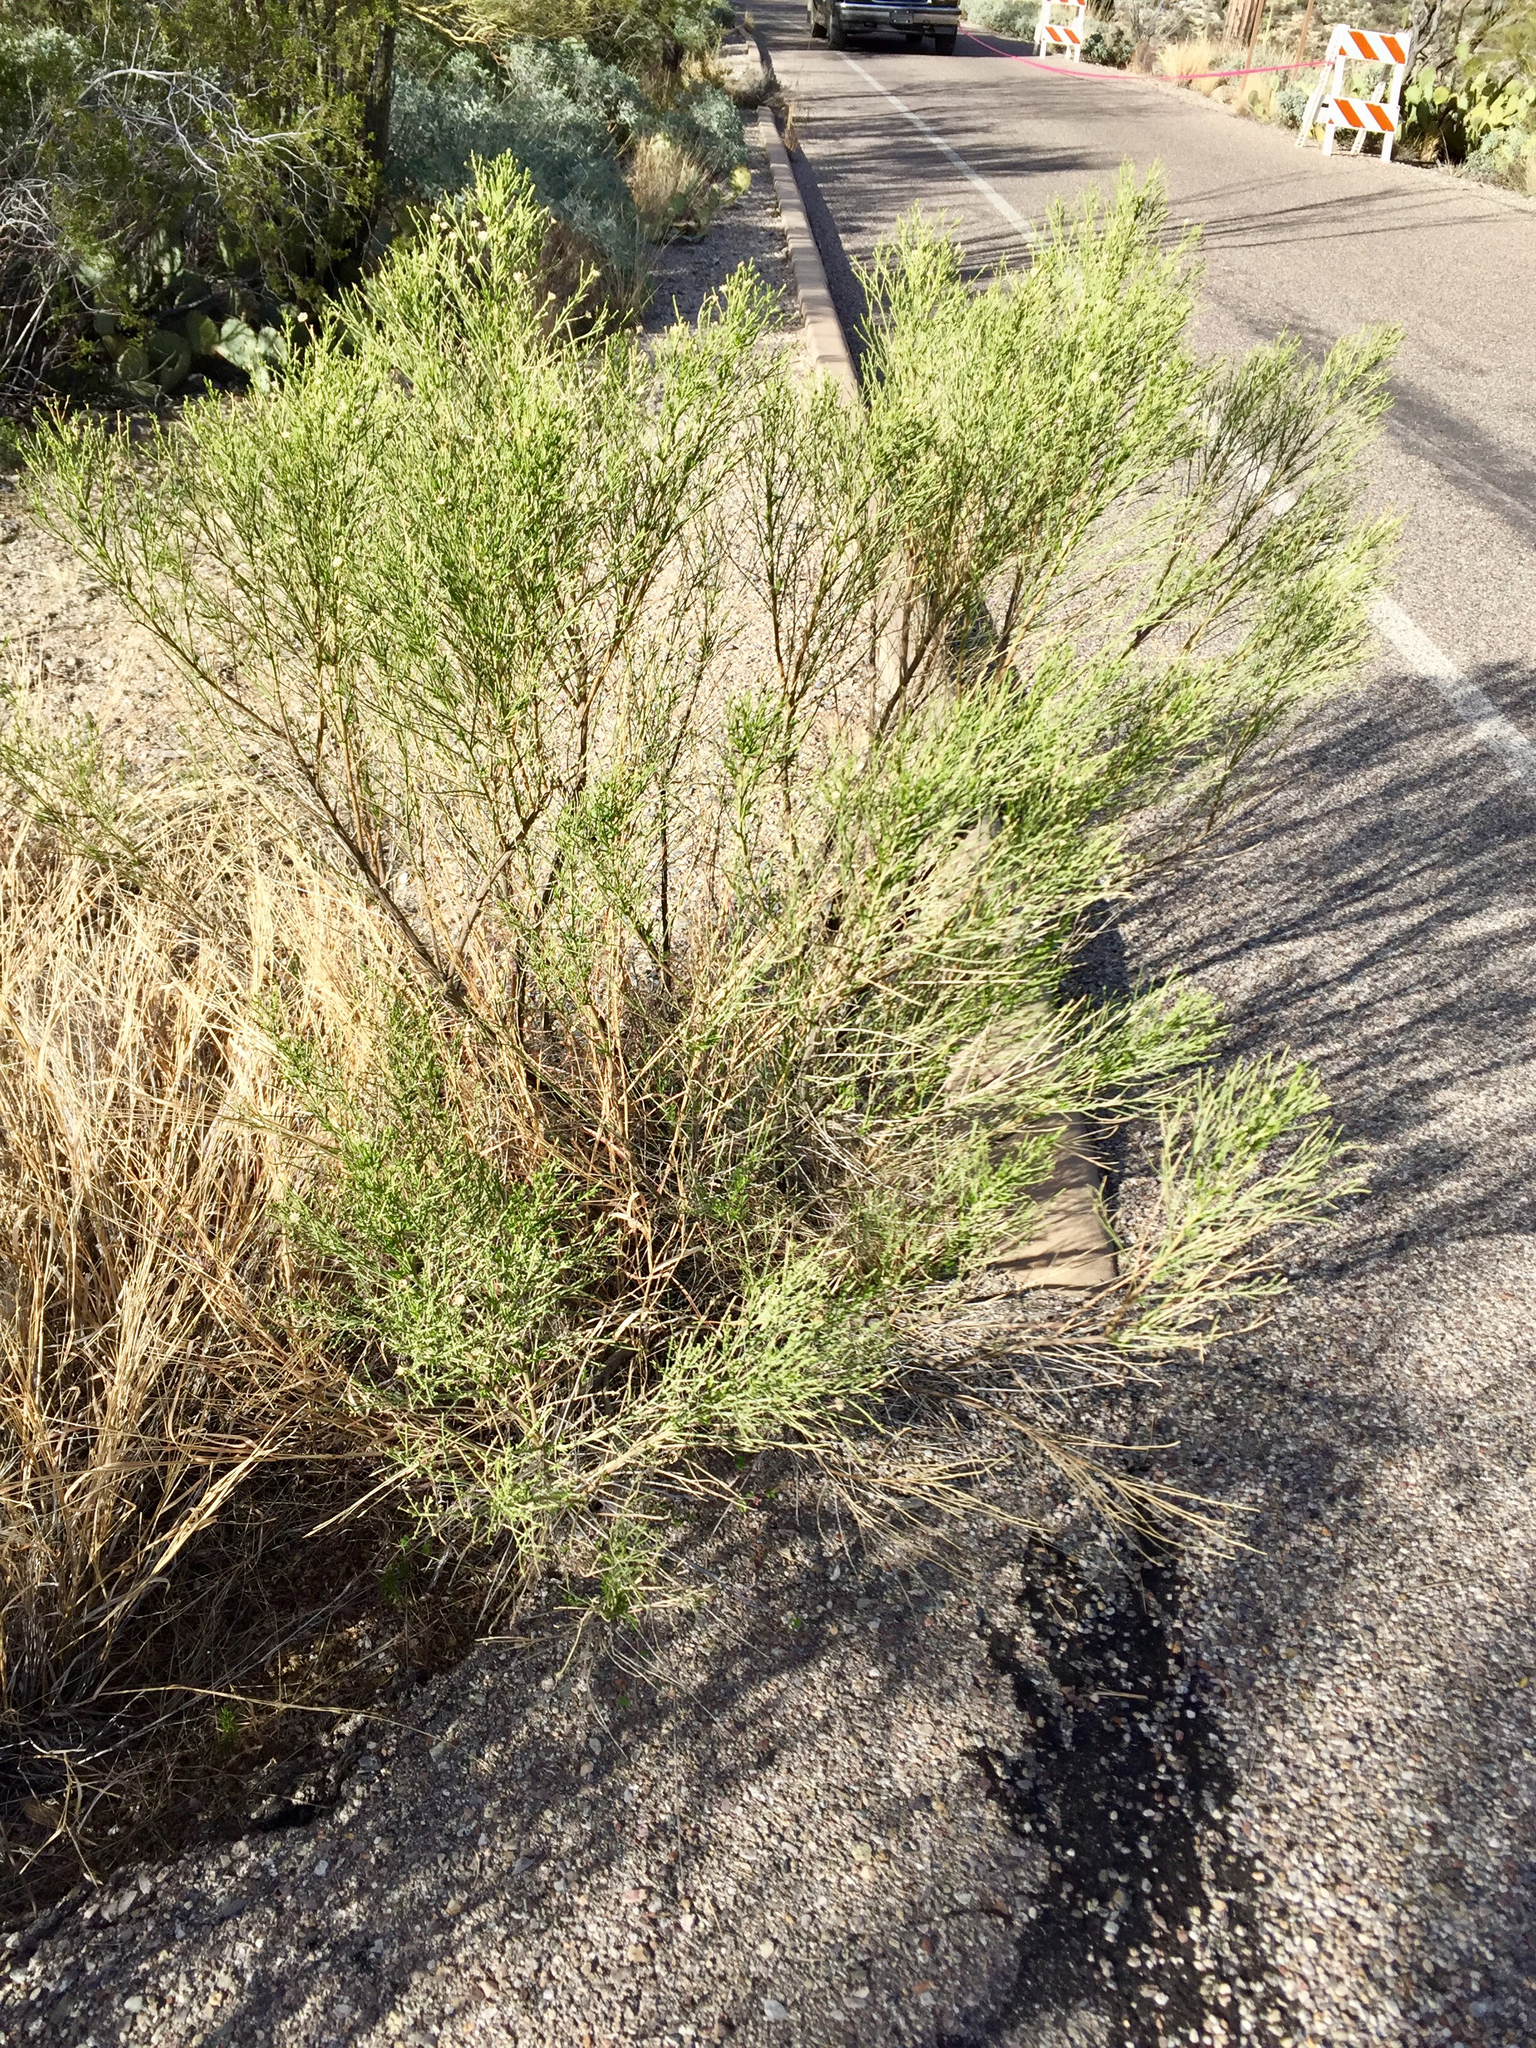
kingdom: Plantae
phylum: Tracheophyta
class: Magnoliopsida
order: Asterales
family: Asteraceae
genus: Baccharis
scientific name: Baccharis sarothroides
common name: Desert-broom
